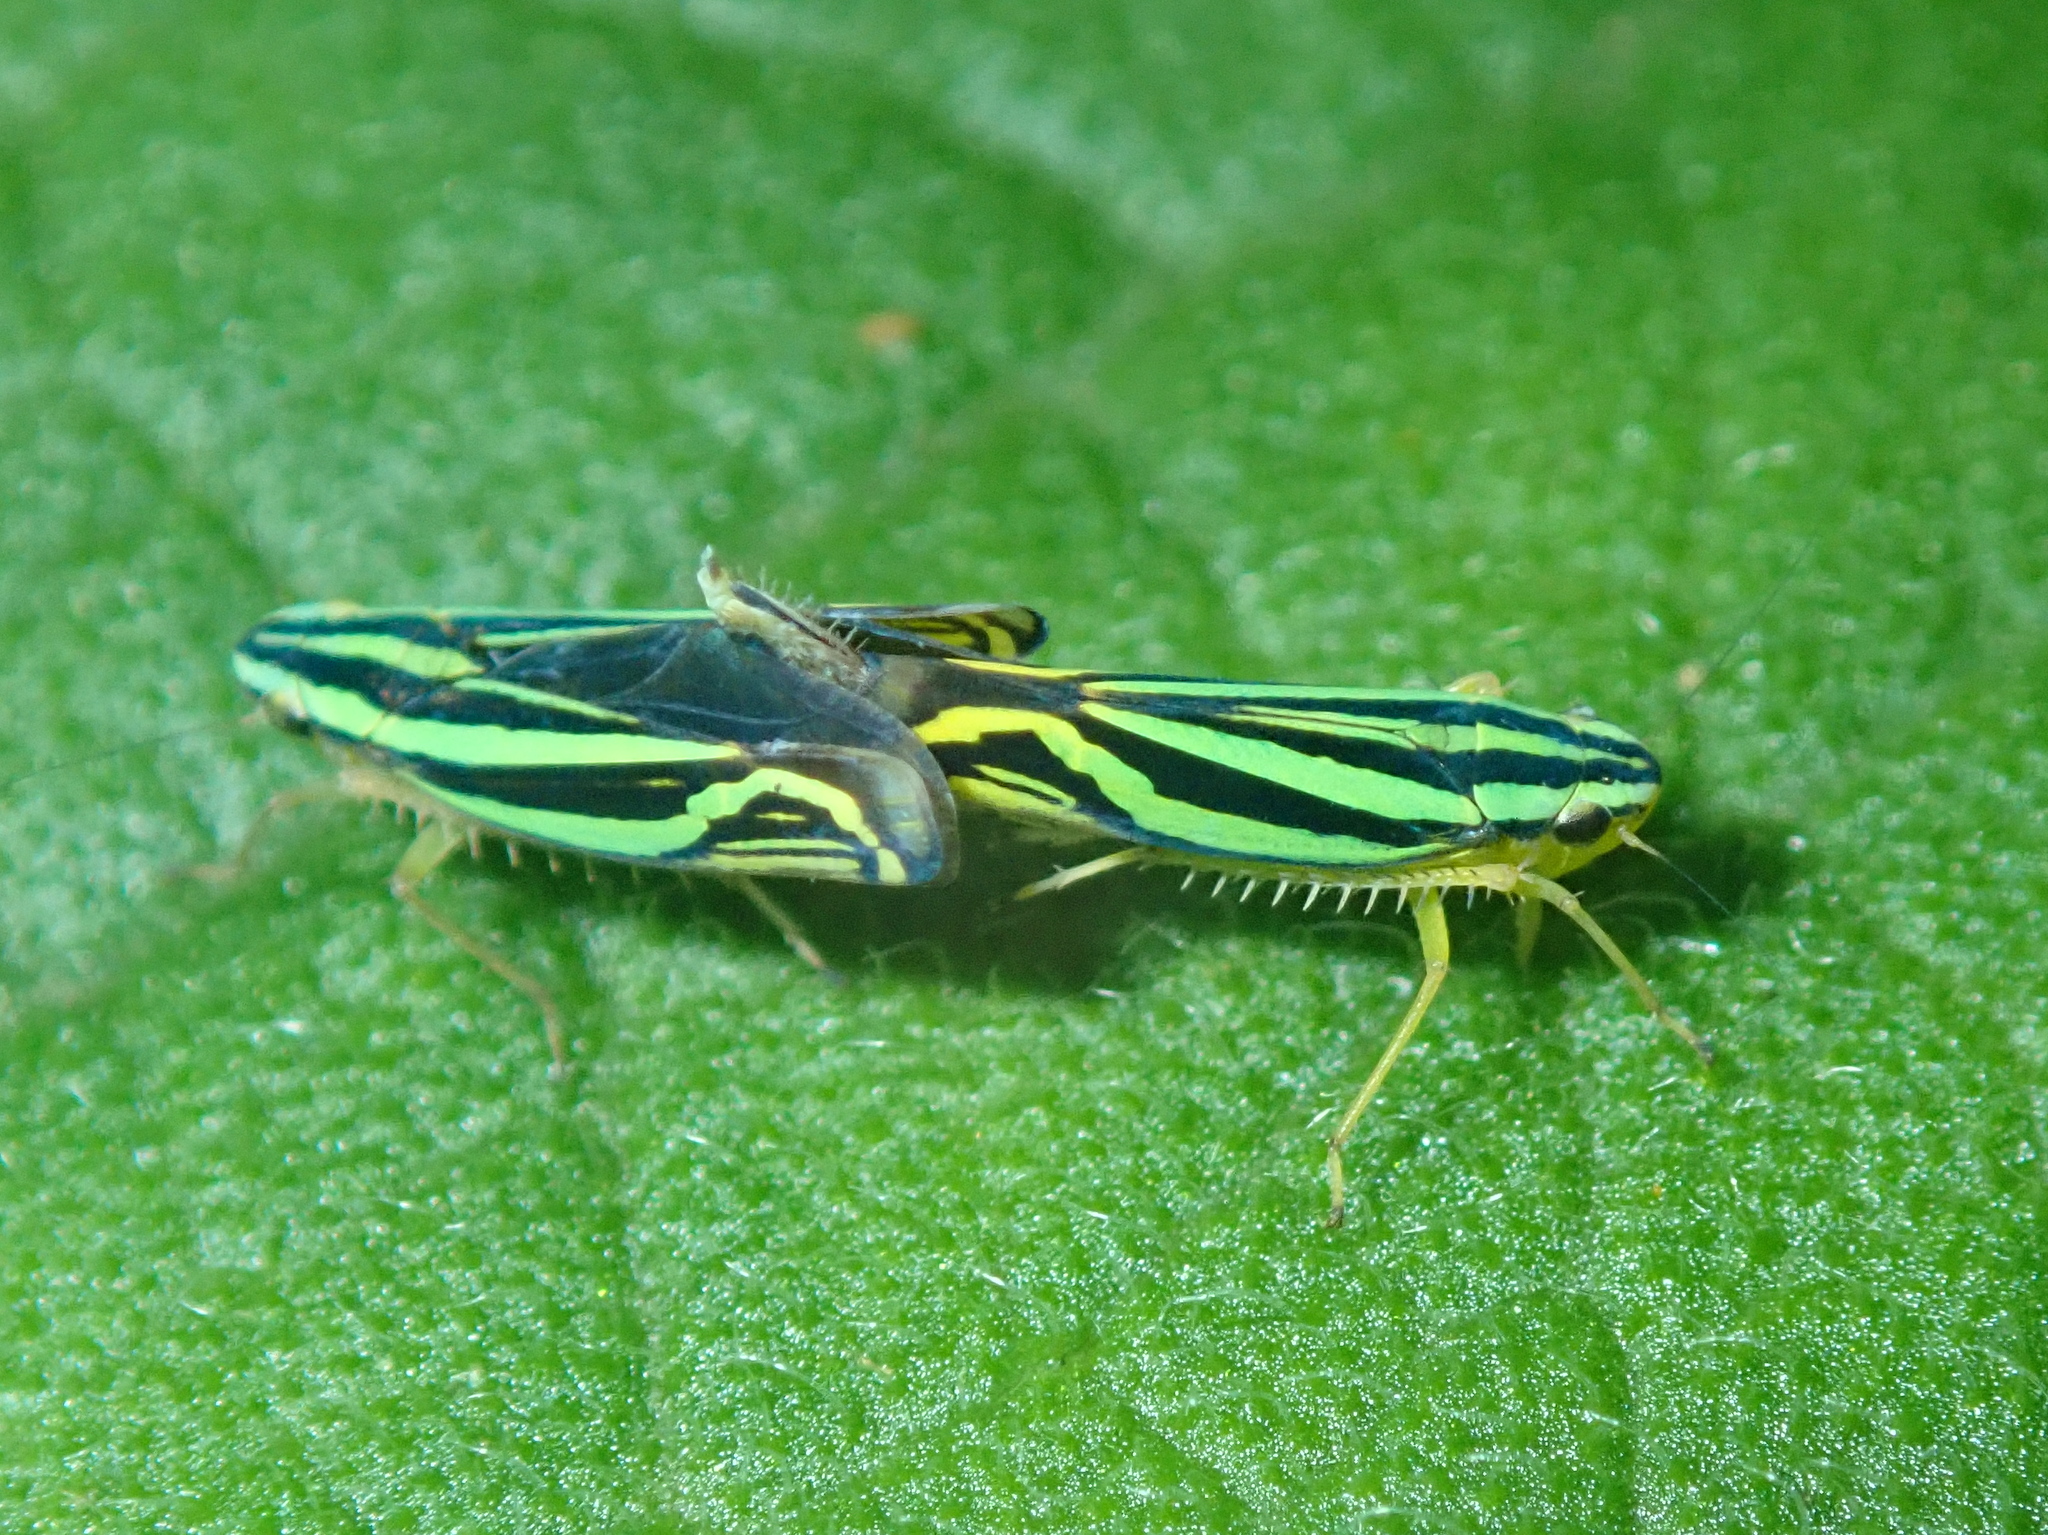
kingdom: Animalia
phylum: Arthropoda
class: Insecta
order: Hemiptera
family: Cicadellidae
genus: Sibovia
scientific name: Sibovia sagata
